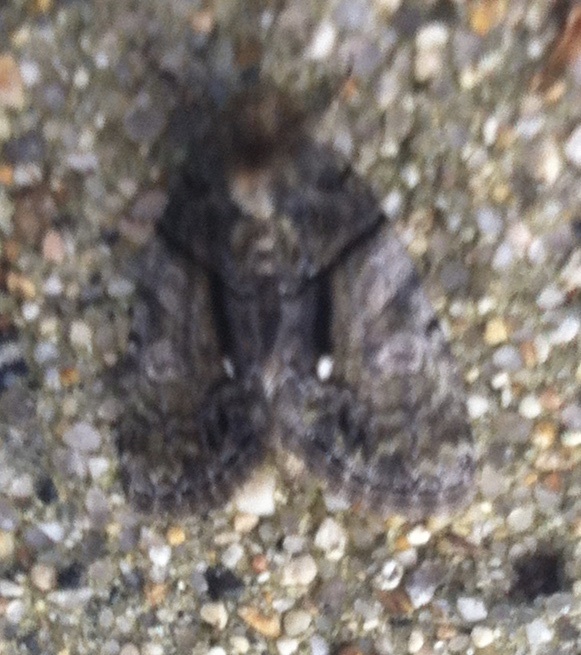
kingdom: Animalia
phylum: Arthropoda
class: Insecta
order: Lepidoptera
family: Noctuidae
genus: Chytonix
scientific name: Chytonix palliatricula
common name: Cloaked marvel
